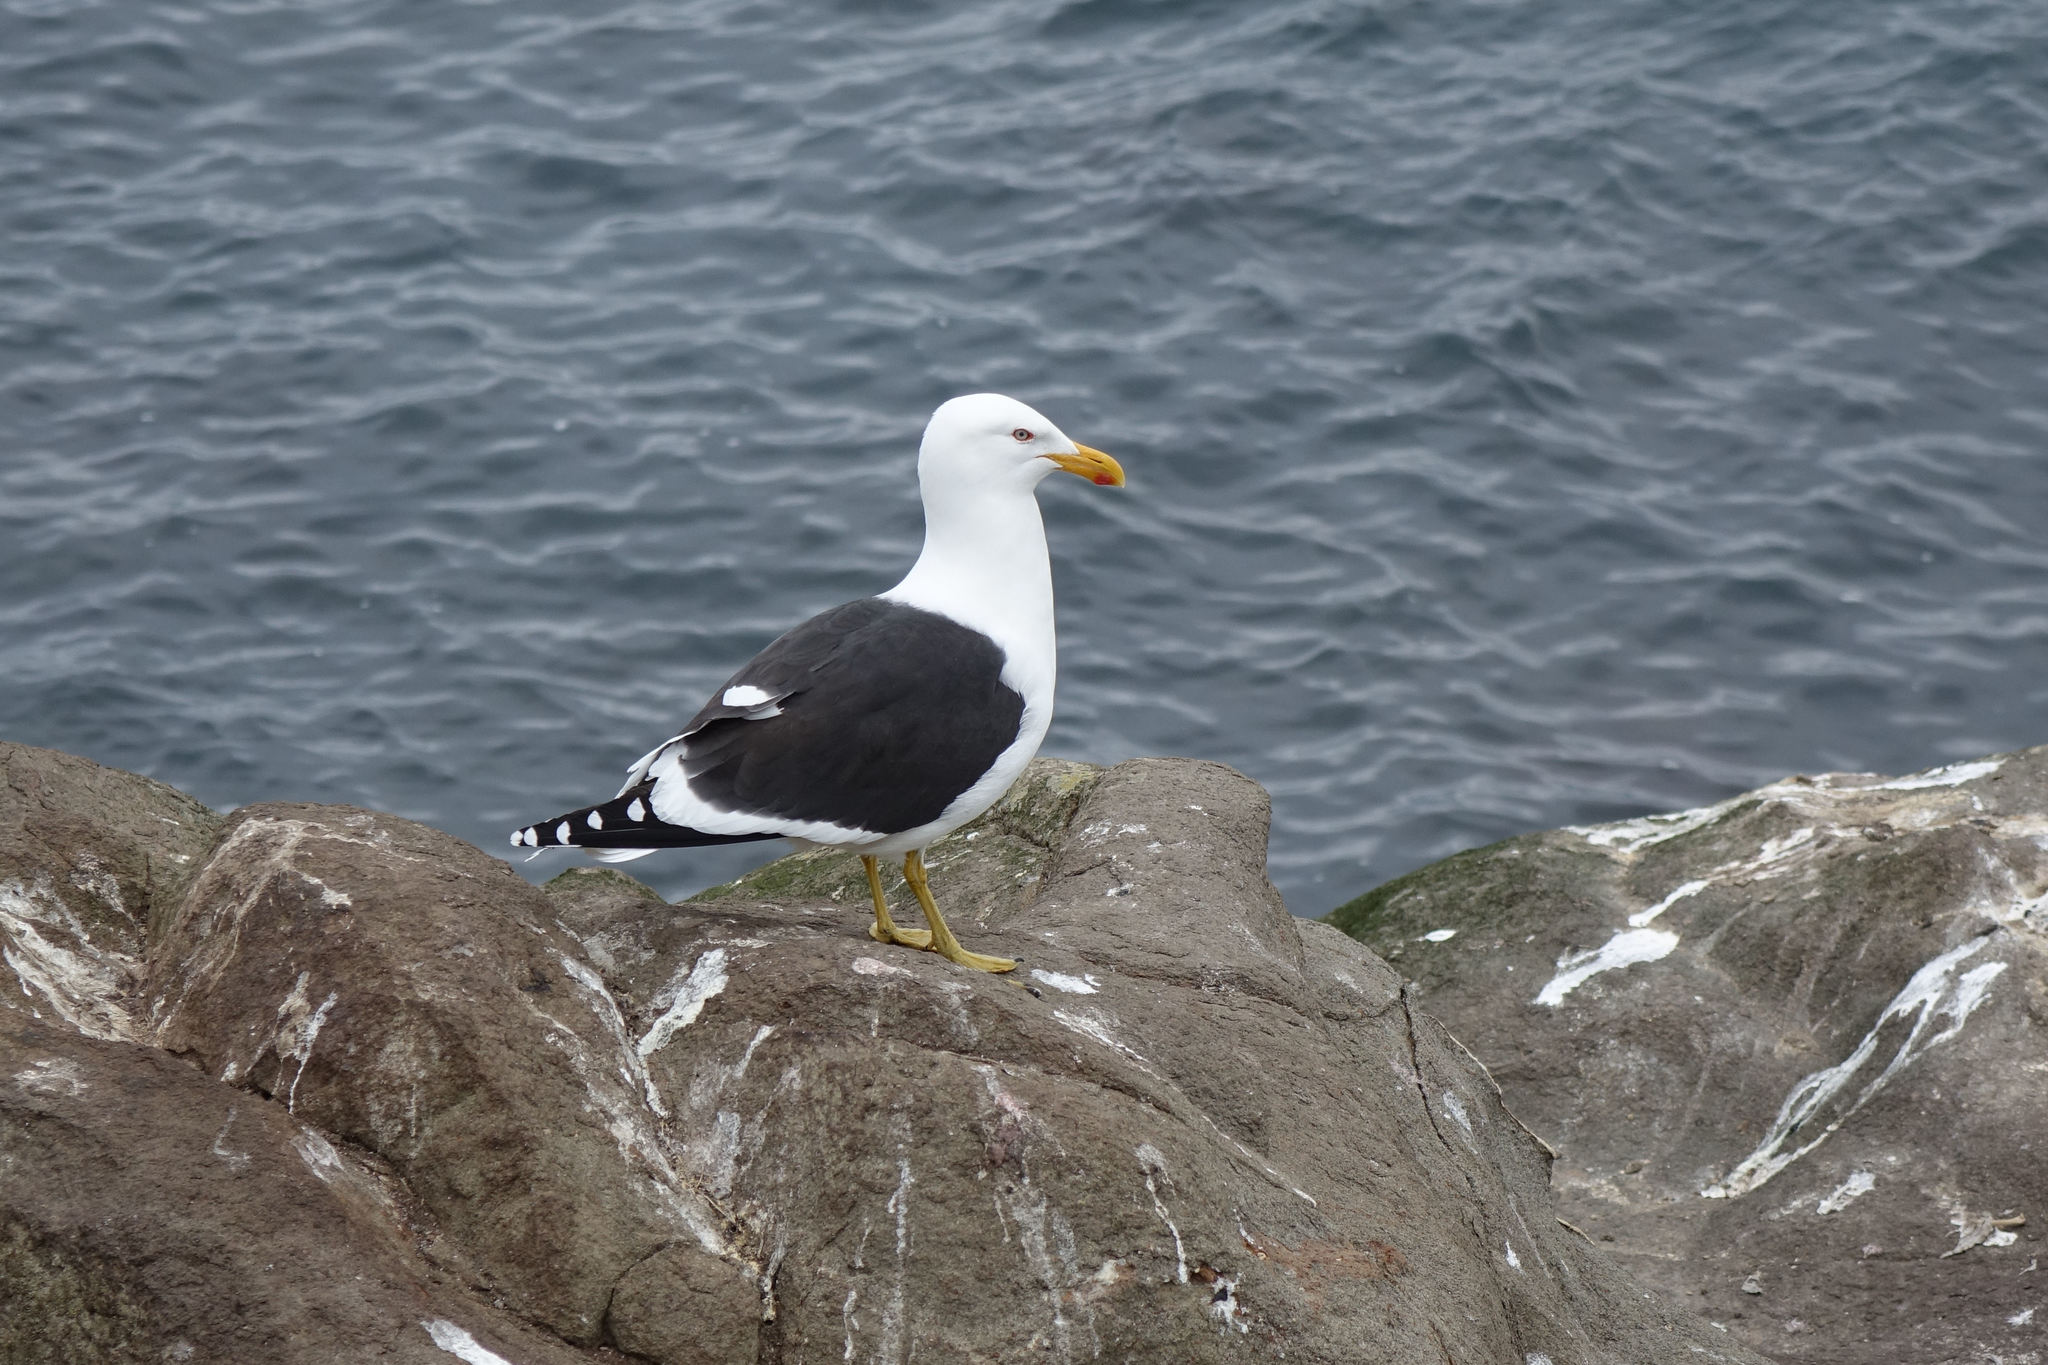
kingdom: Animalia
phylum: Chordata
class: Aves
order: Charadriiformes
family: Laridae
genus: Larus
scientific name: Larus dominicanus
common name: Kelp gull
